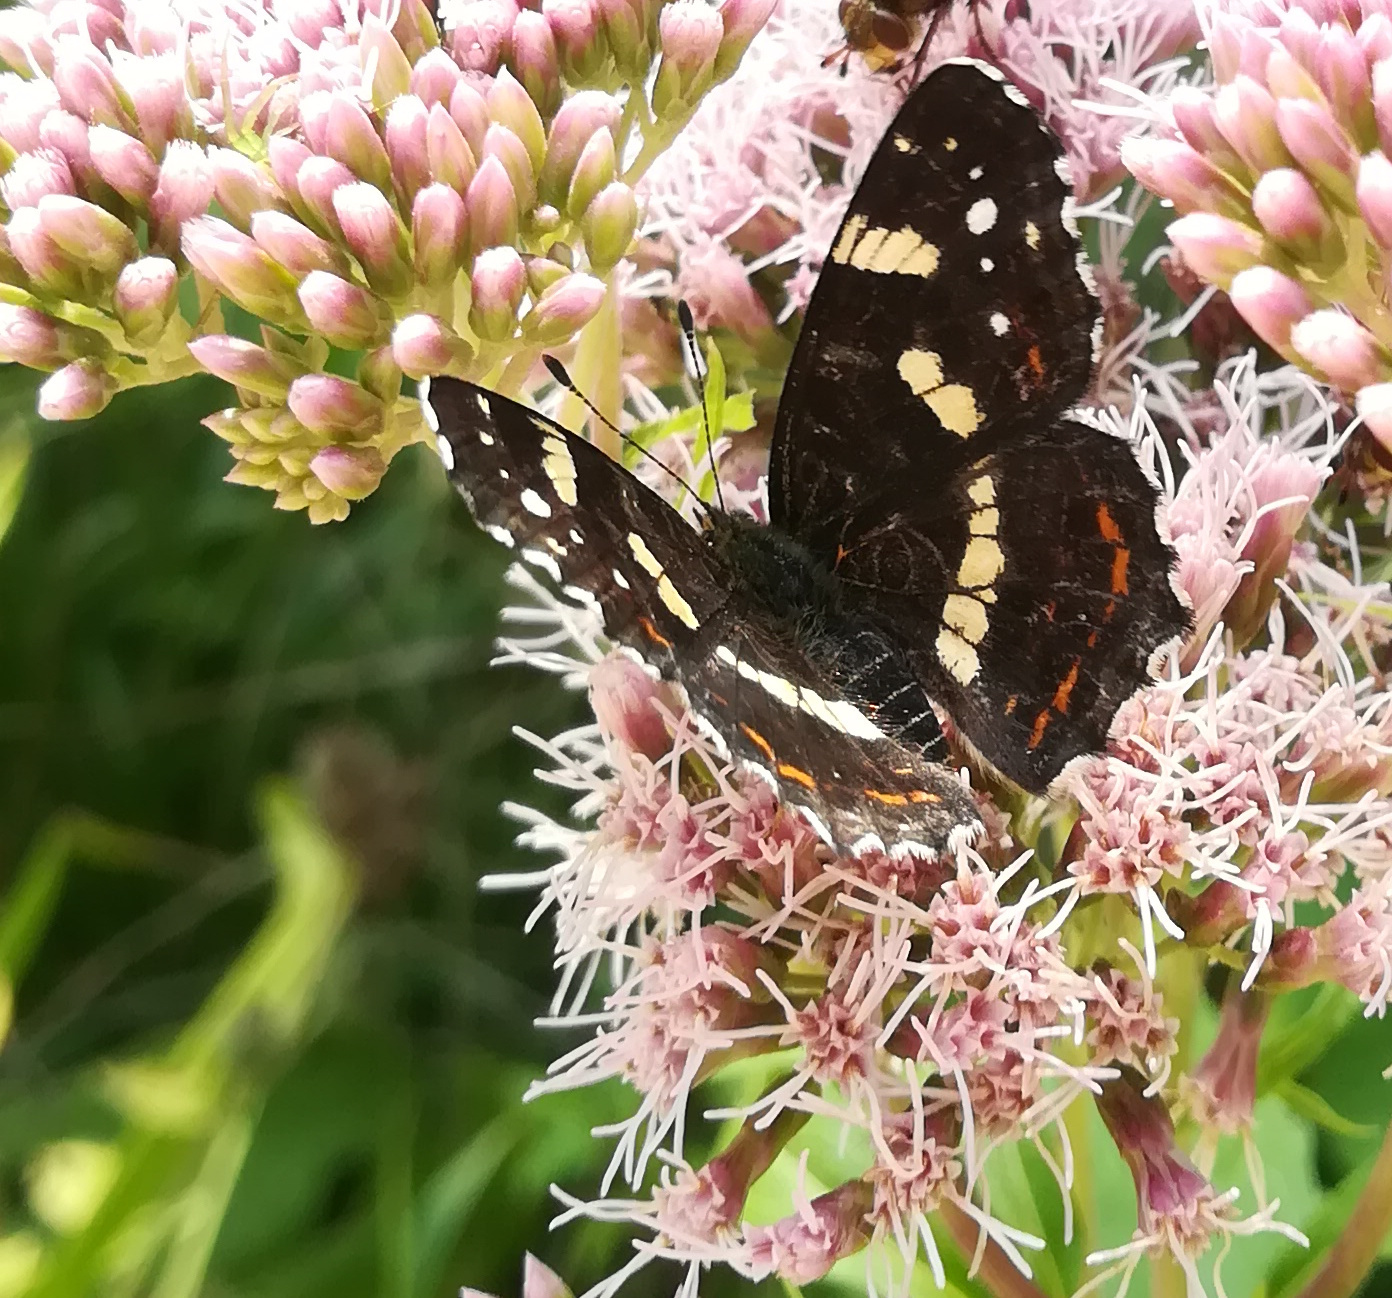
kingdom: Animalia
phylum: Arthropoda
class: Insecta
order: Lepidoptera
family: Nymphalidae
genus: Araschnia
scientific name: Araschnia levana
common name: Map butterfly
